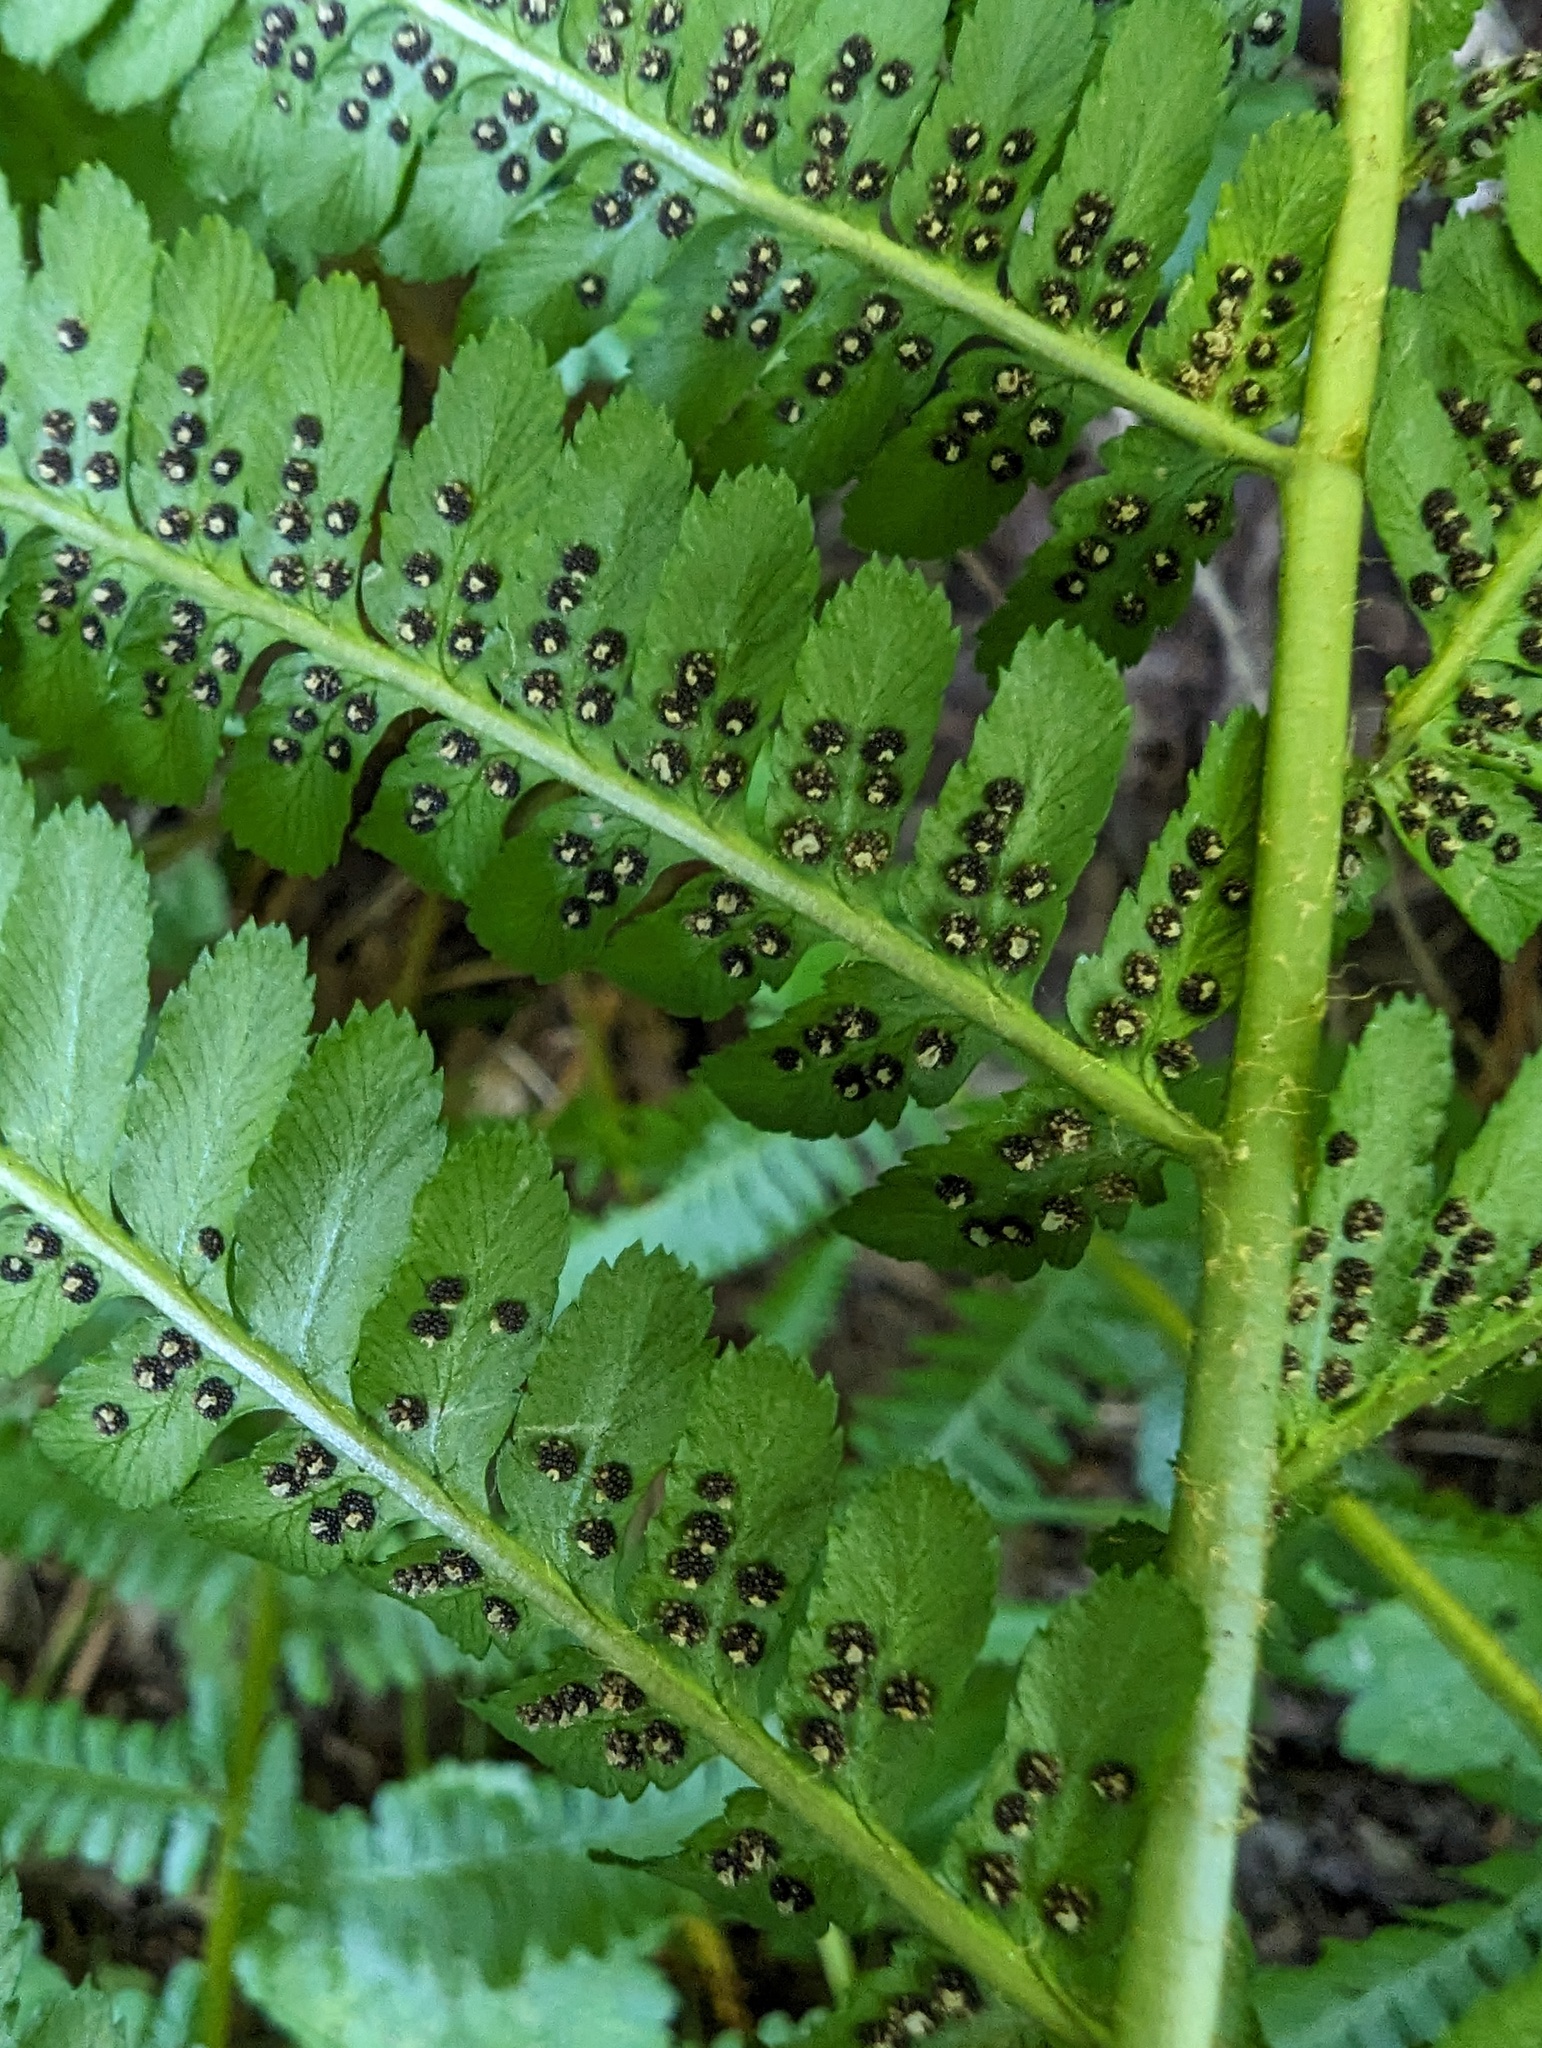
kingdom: Plantae
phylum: Tracheophyta
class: Polypodiopsida
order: Polypodiales
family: Dryopteridaceae
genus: Dryopteris
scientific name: Dryopteris filix-mas
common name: Male fern
